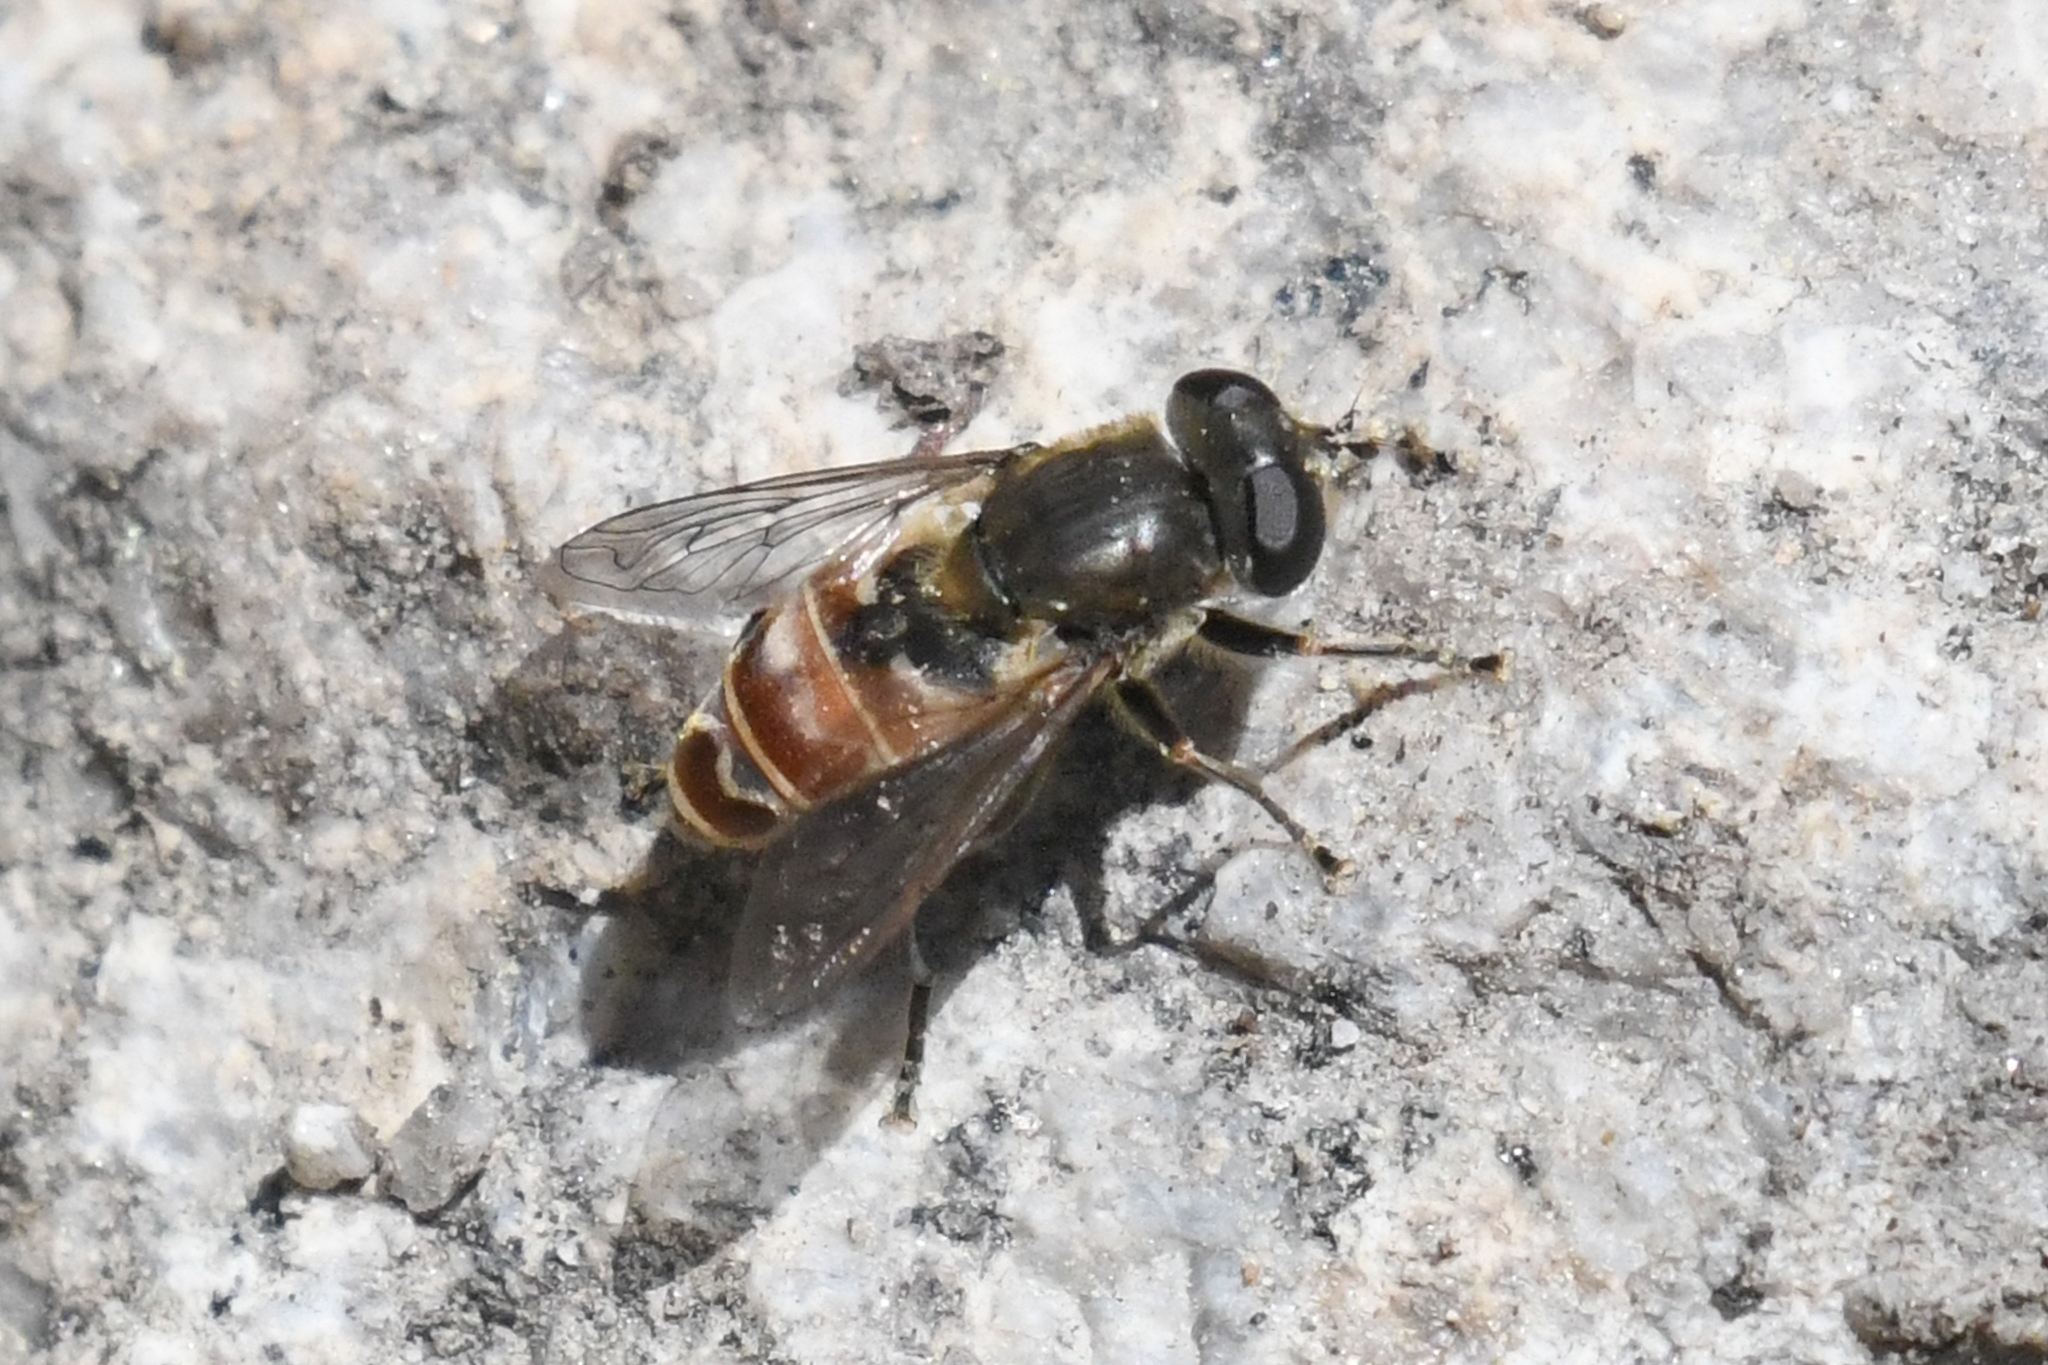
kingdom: Animalia
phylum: Arthropoda
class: Insecta
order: Diptera
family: Syrphidae
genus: Asemosyrphus
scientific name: Asemosyrphus polygrammus
